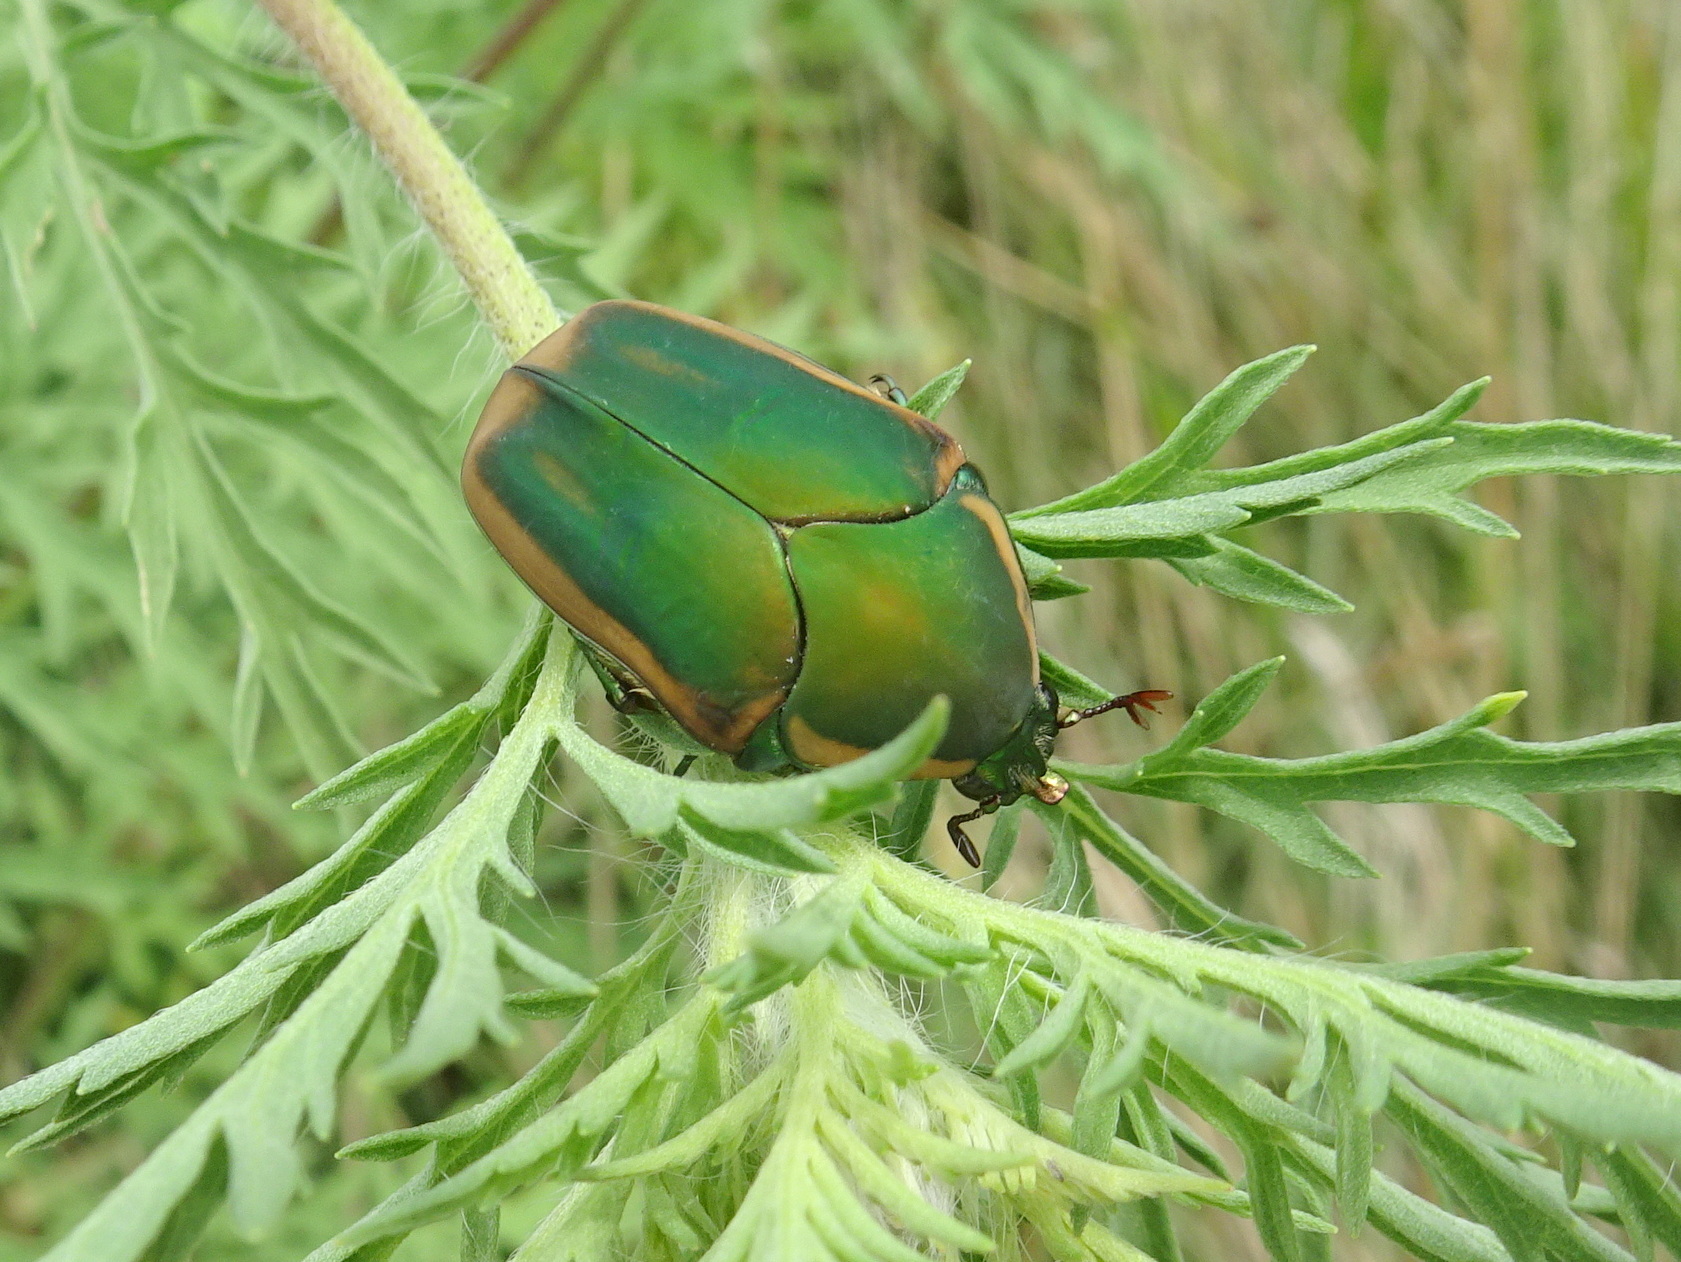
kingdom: Animalia
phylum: Arthropoda
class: Insecta
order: Coleoptera
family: Scarabaeidae
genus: Cotinis
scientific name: Cotinis nitida
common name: Common green june beetle
